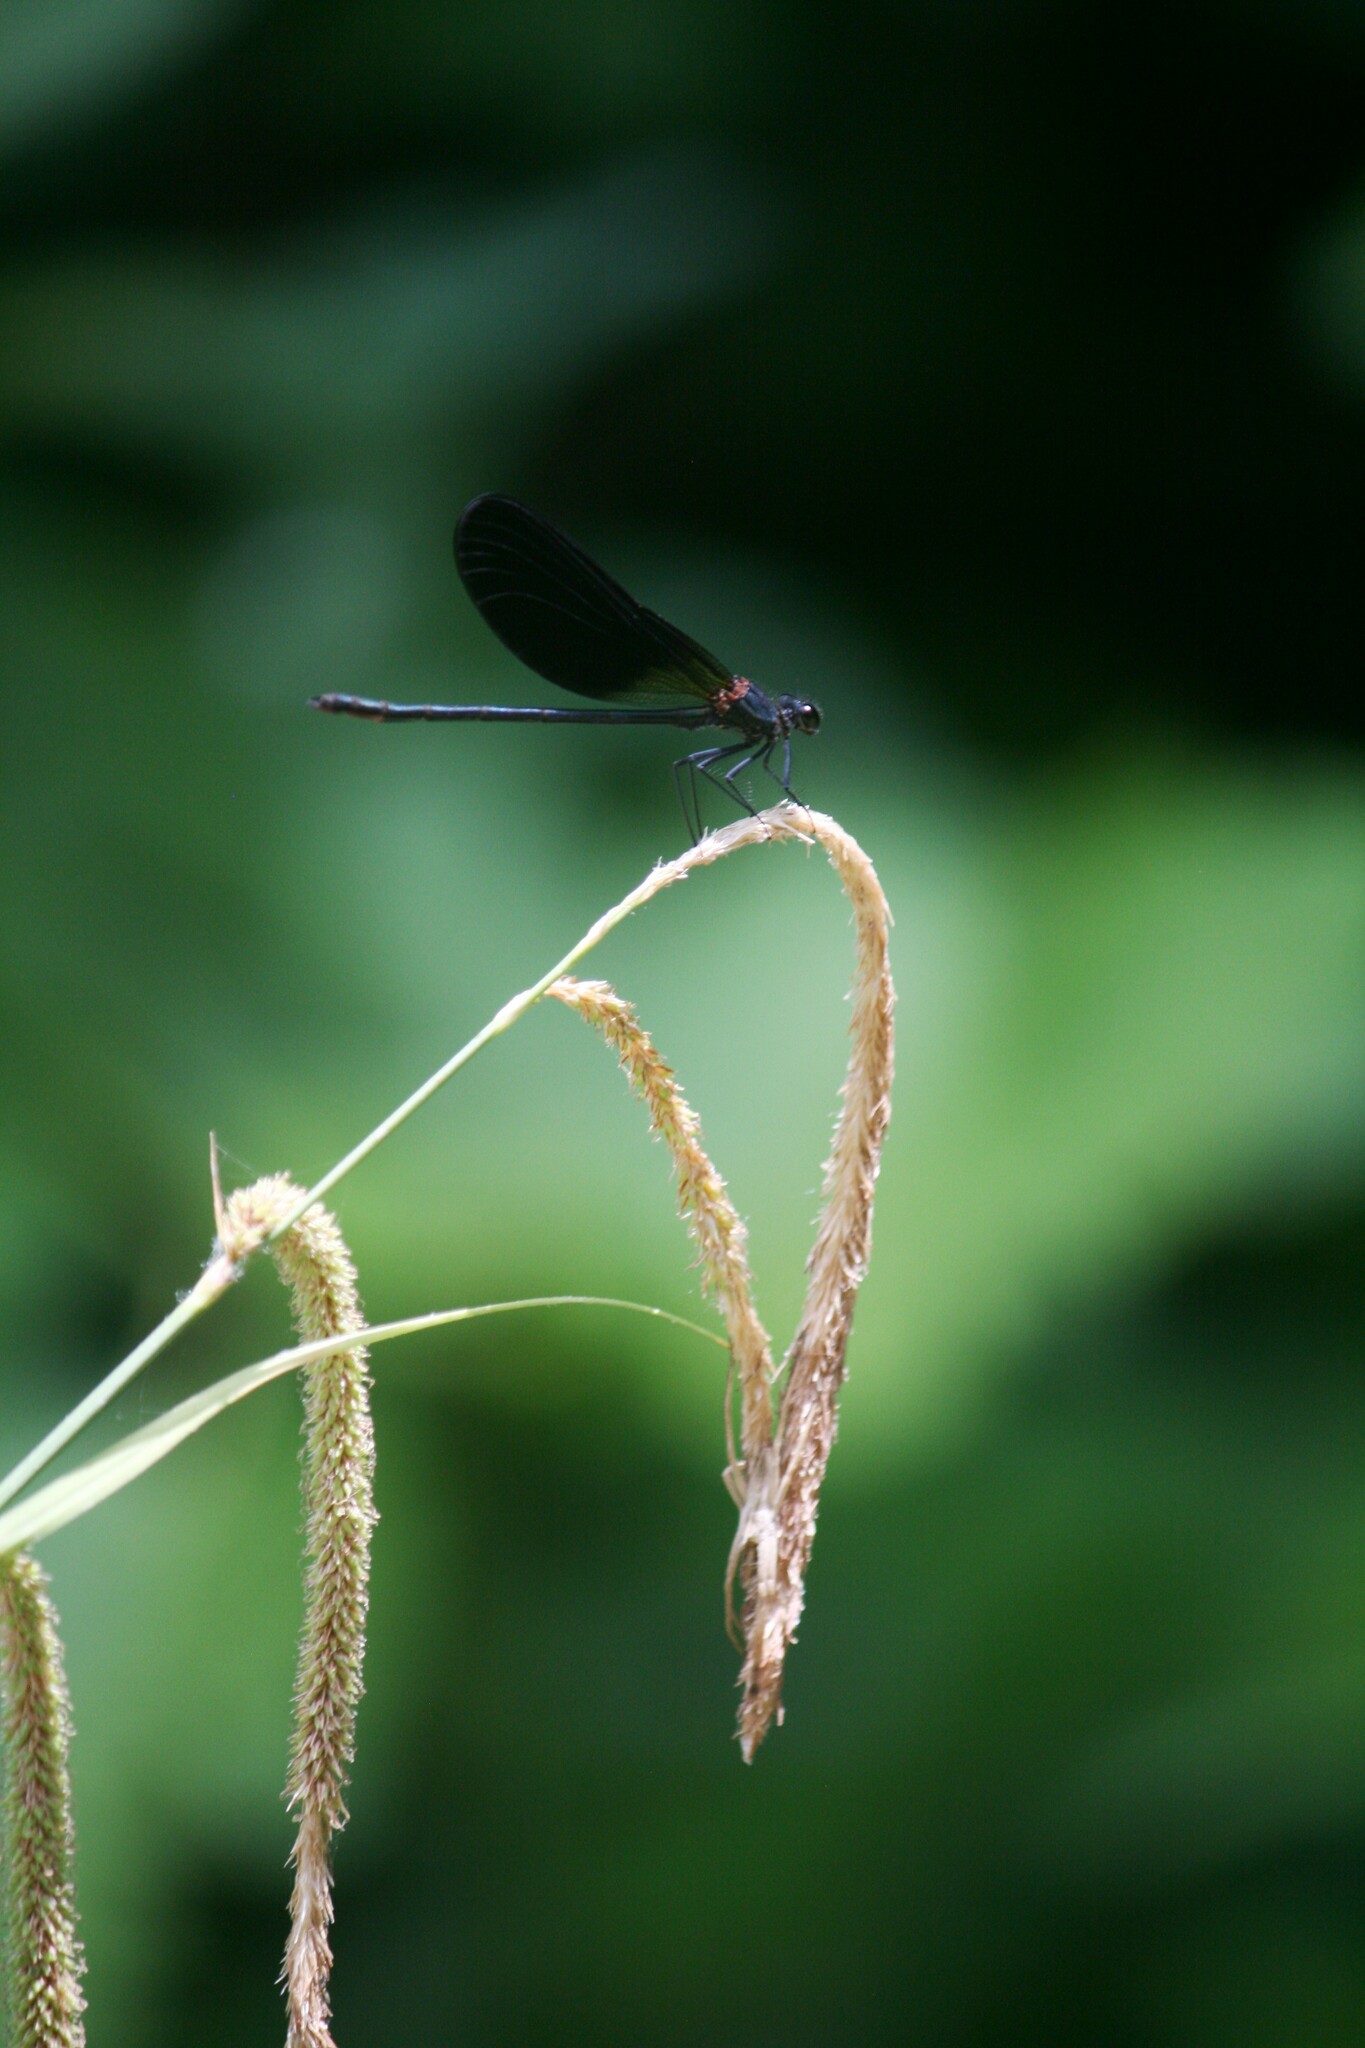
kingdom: Animalia
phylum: Arthropoda
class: Insecta
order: Odonata
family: Calopterygidae
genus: Calopteryx
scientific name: Calopteryx haemorrhoidalis
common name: Copper demoiselle
